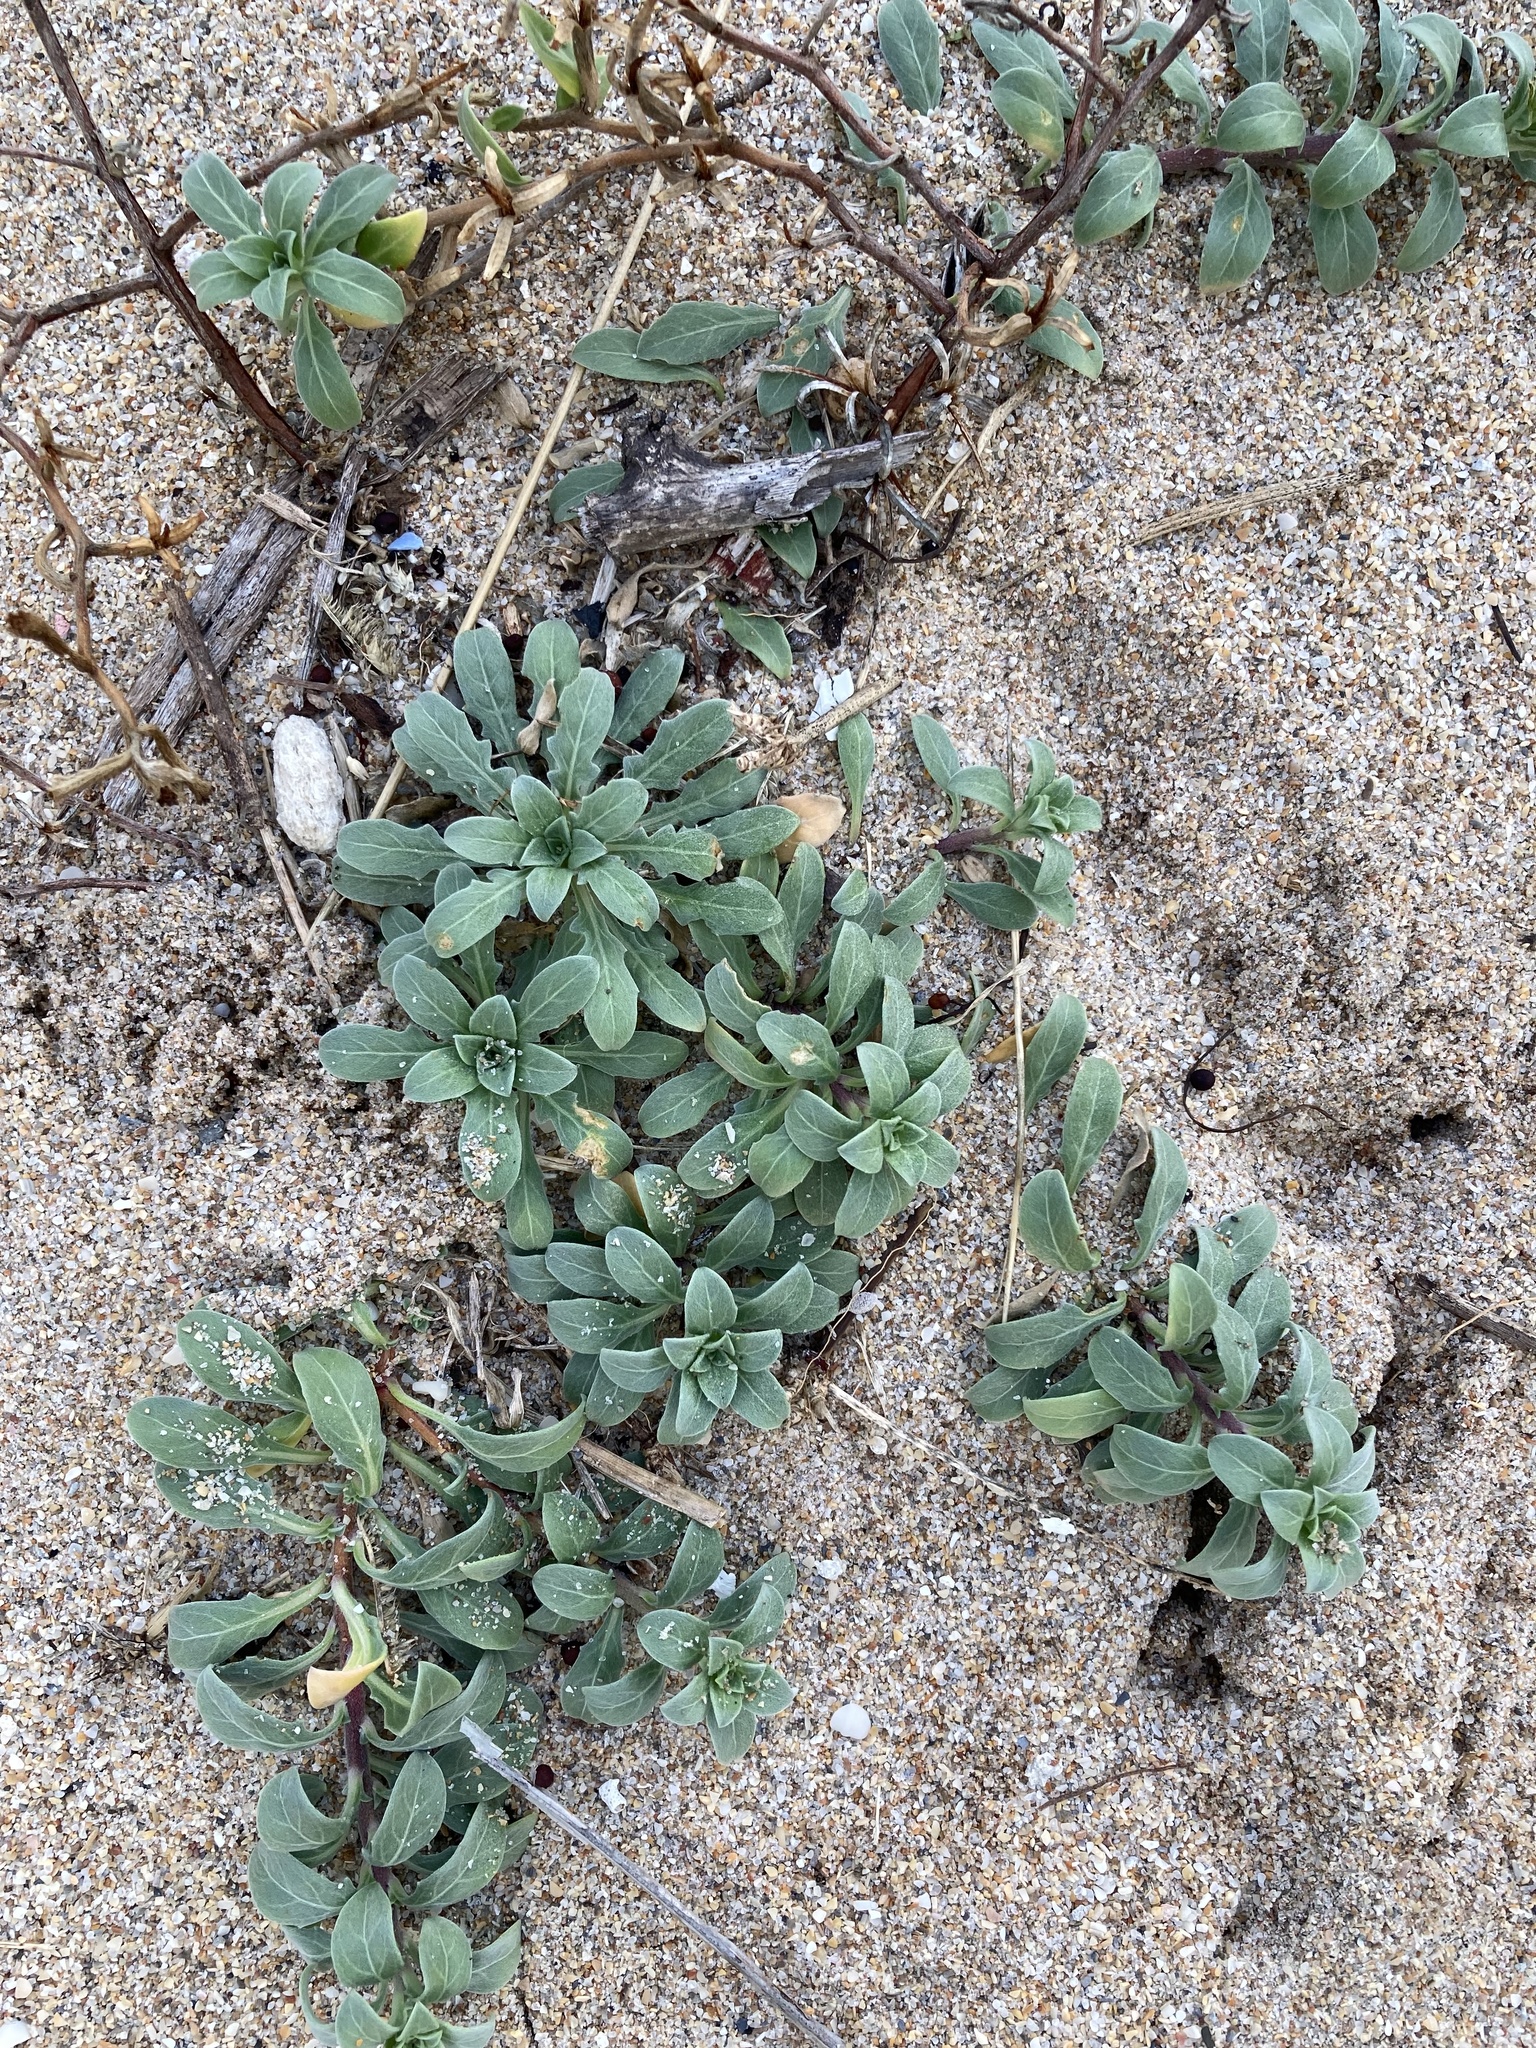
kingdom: Plantae
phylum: Tracheophyta
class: Magnoliopsida
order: Myrtales
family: Onagraceae
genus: Oenothera
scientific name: Oenothera humifusa
